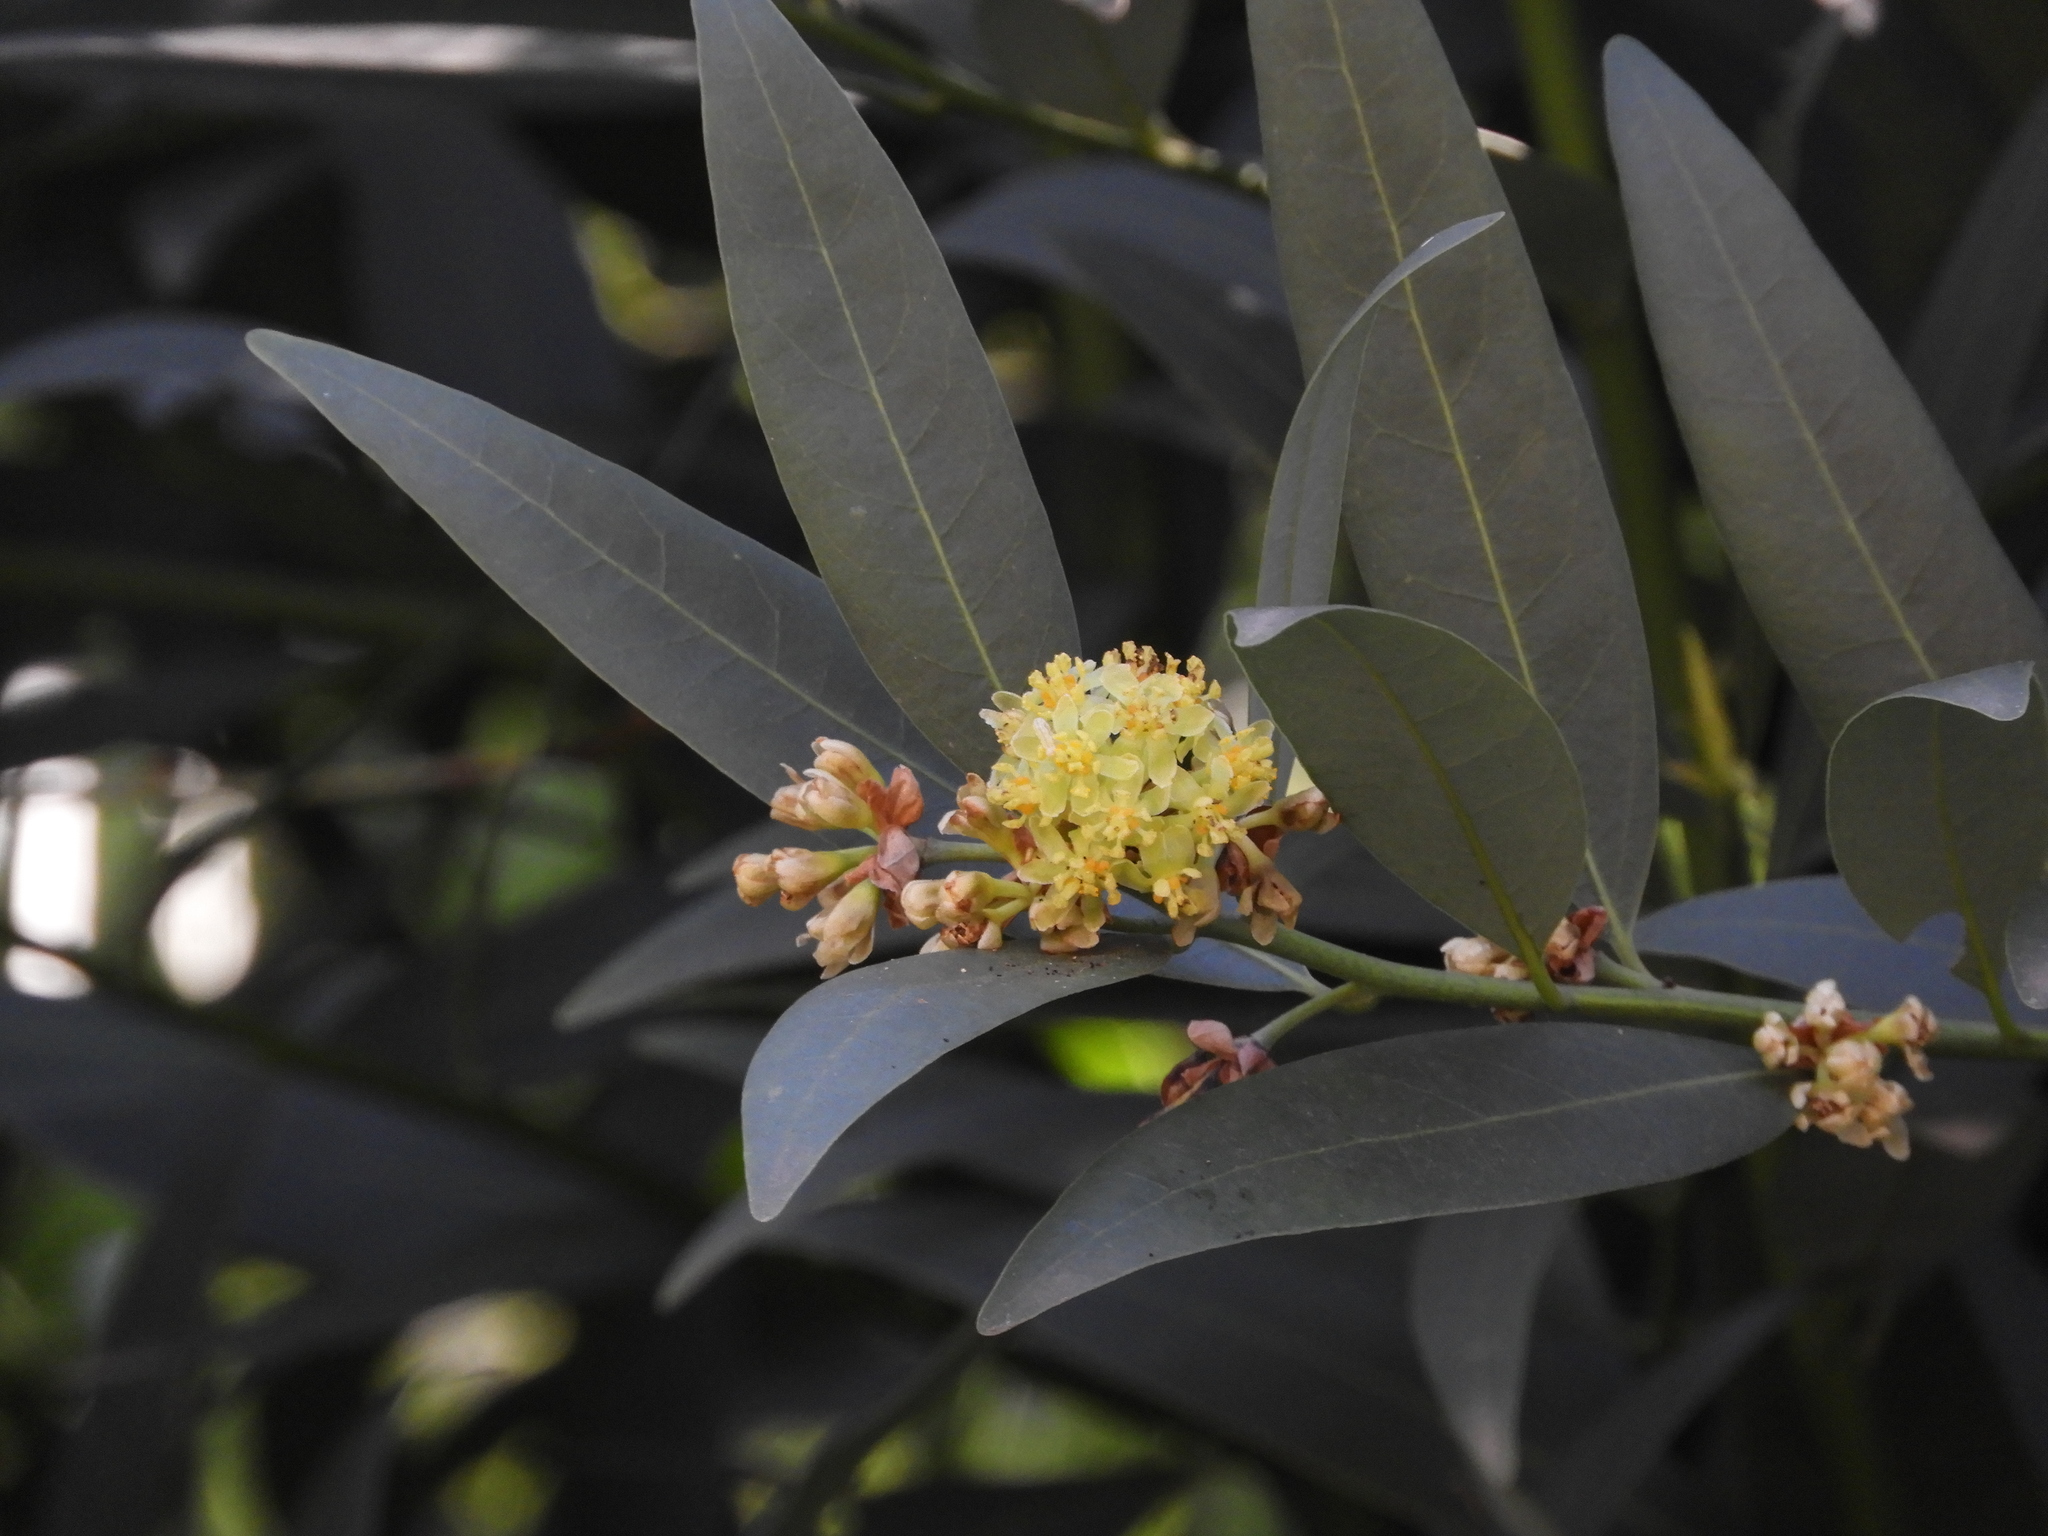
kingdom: Plantae
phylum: Tracheophyta
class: Magnoliopsida
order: Laurales
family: Lauraceae
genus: Umbellularia
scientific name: Umbellularia californica
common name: California bay
